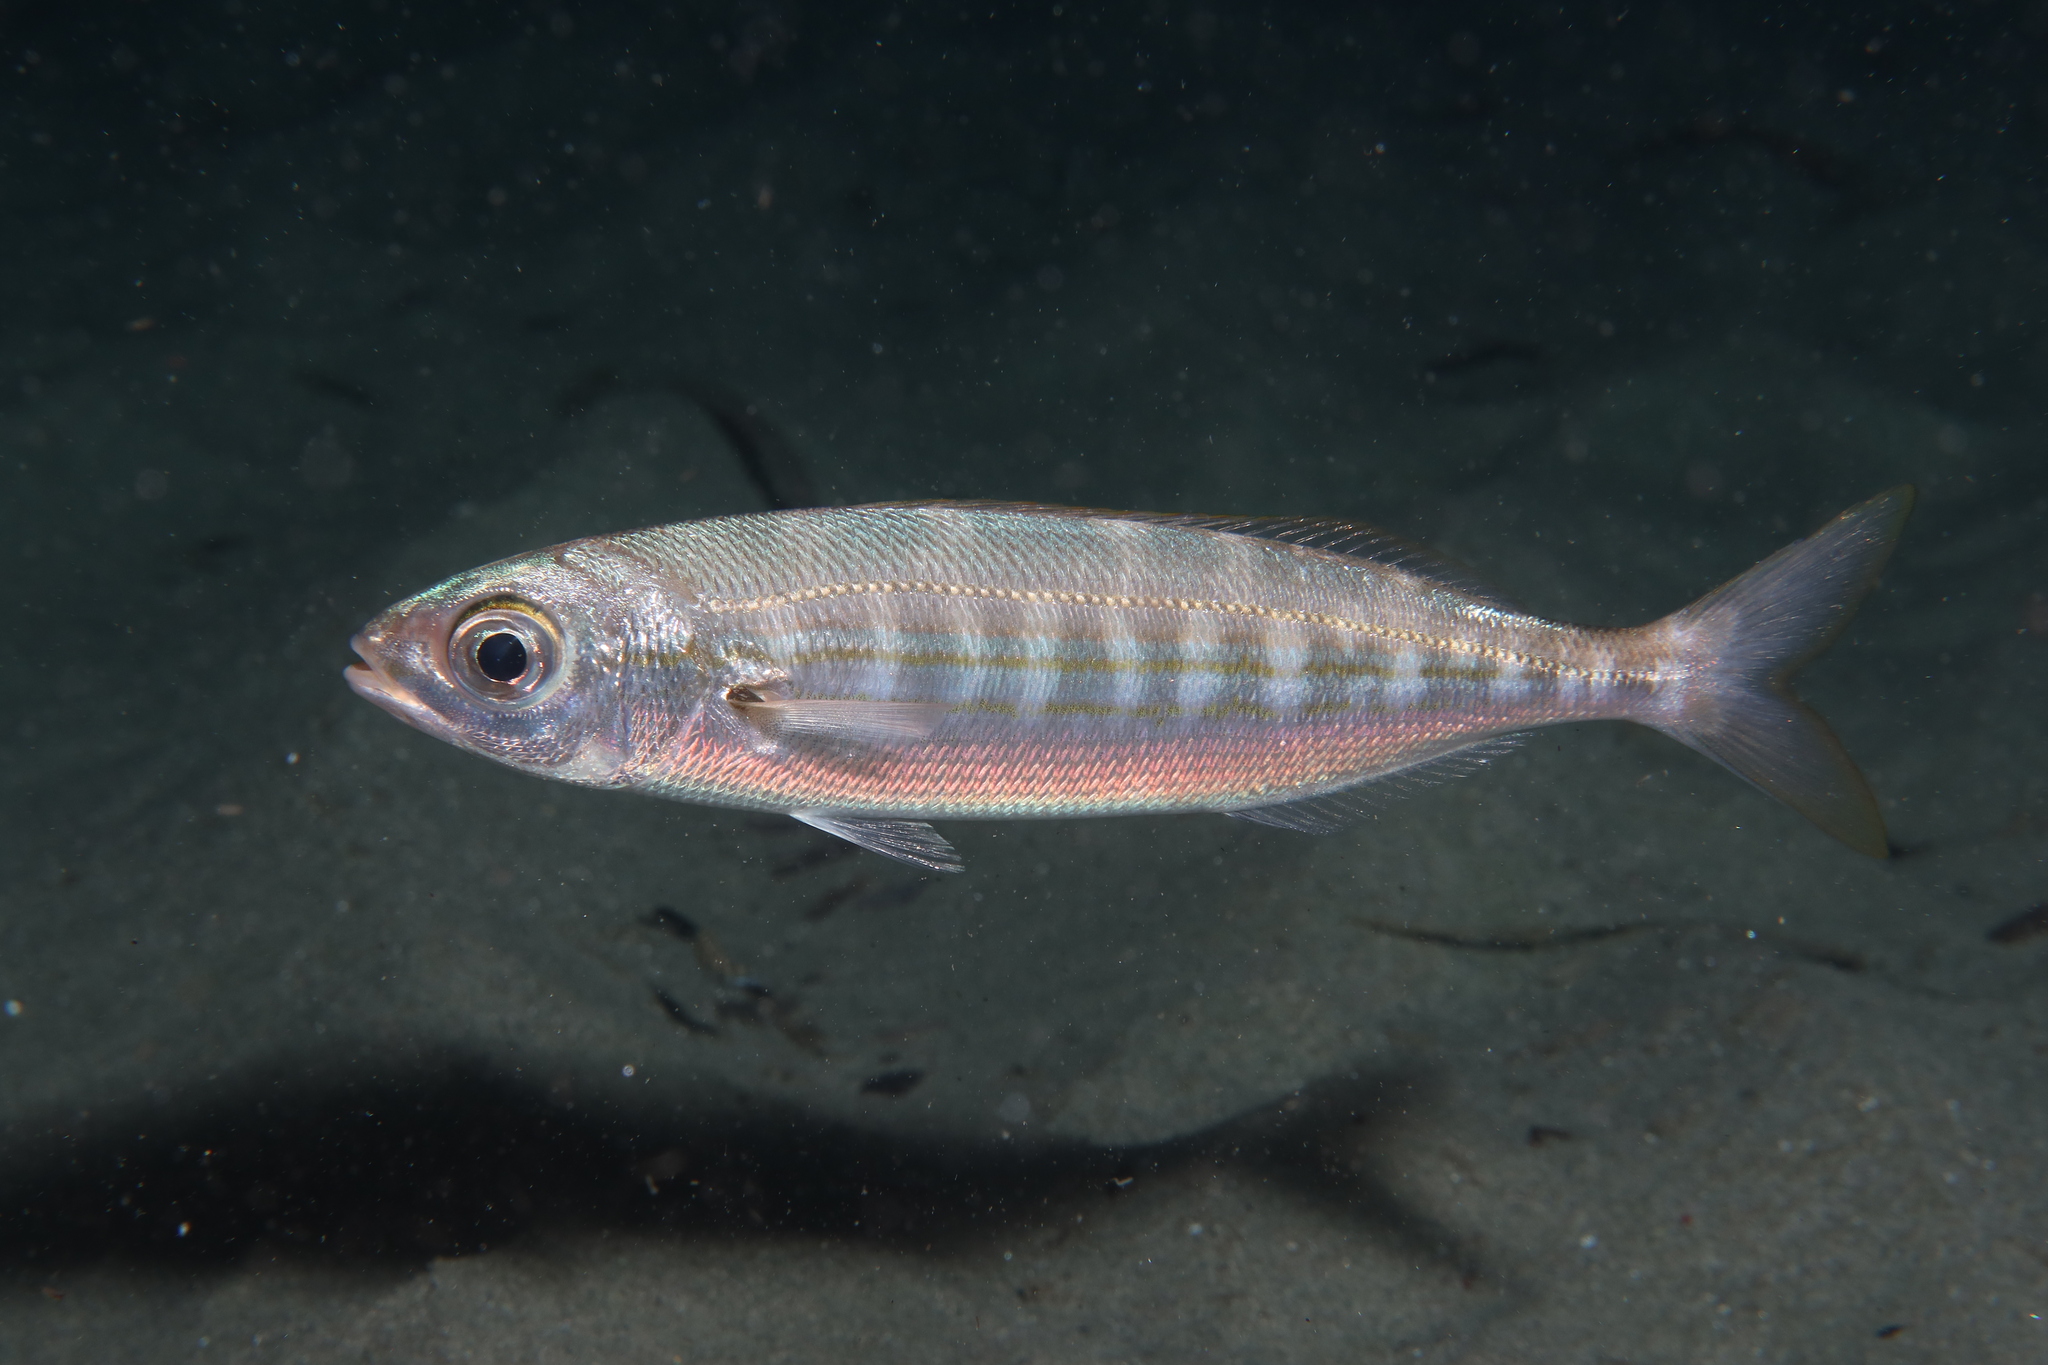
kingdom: Animalia
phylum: Chordata
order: Perciformes
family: Sparidae
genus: Boops
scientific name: Boops boops
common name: Bogue
